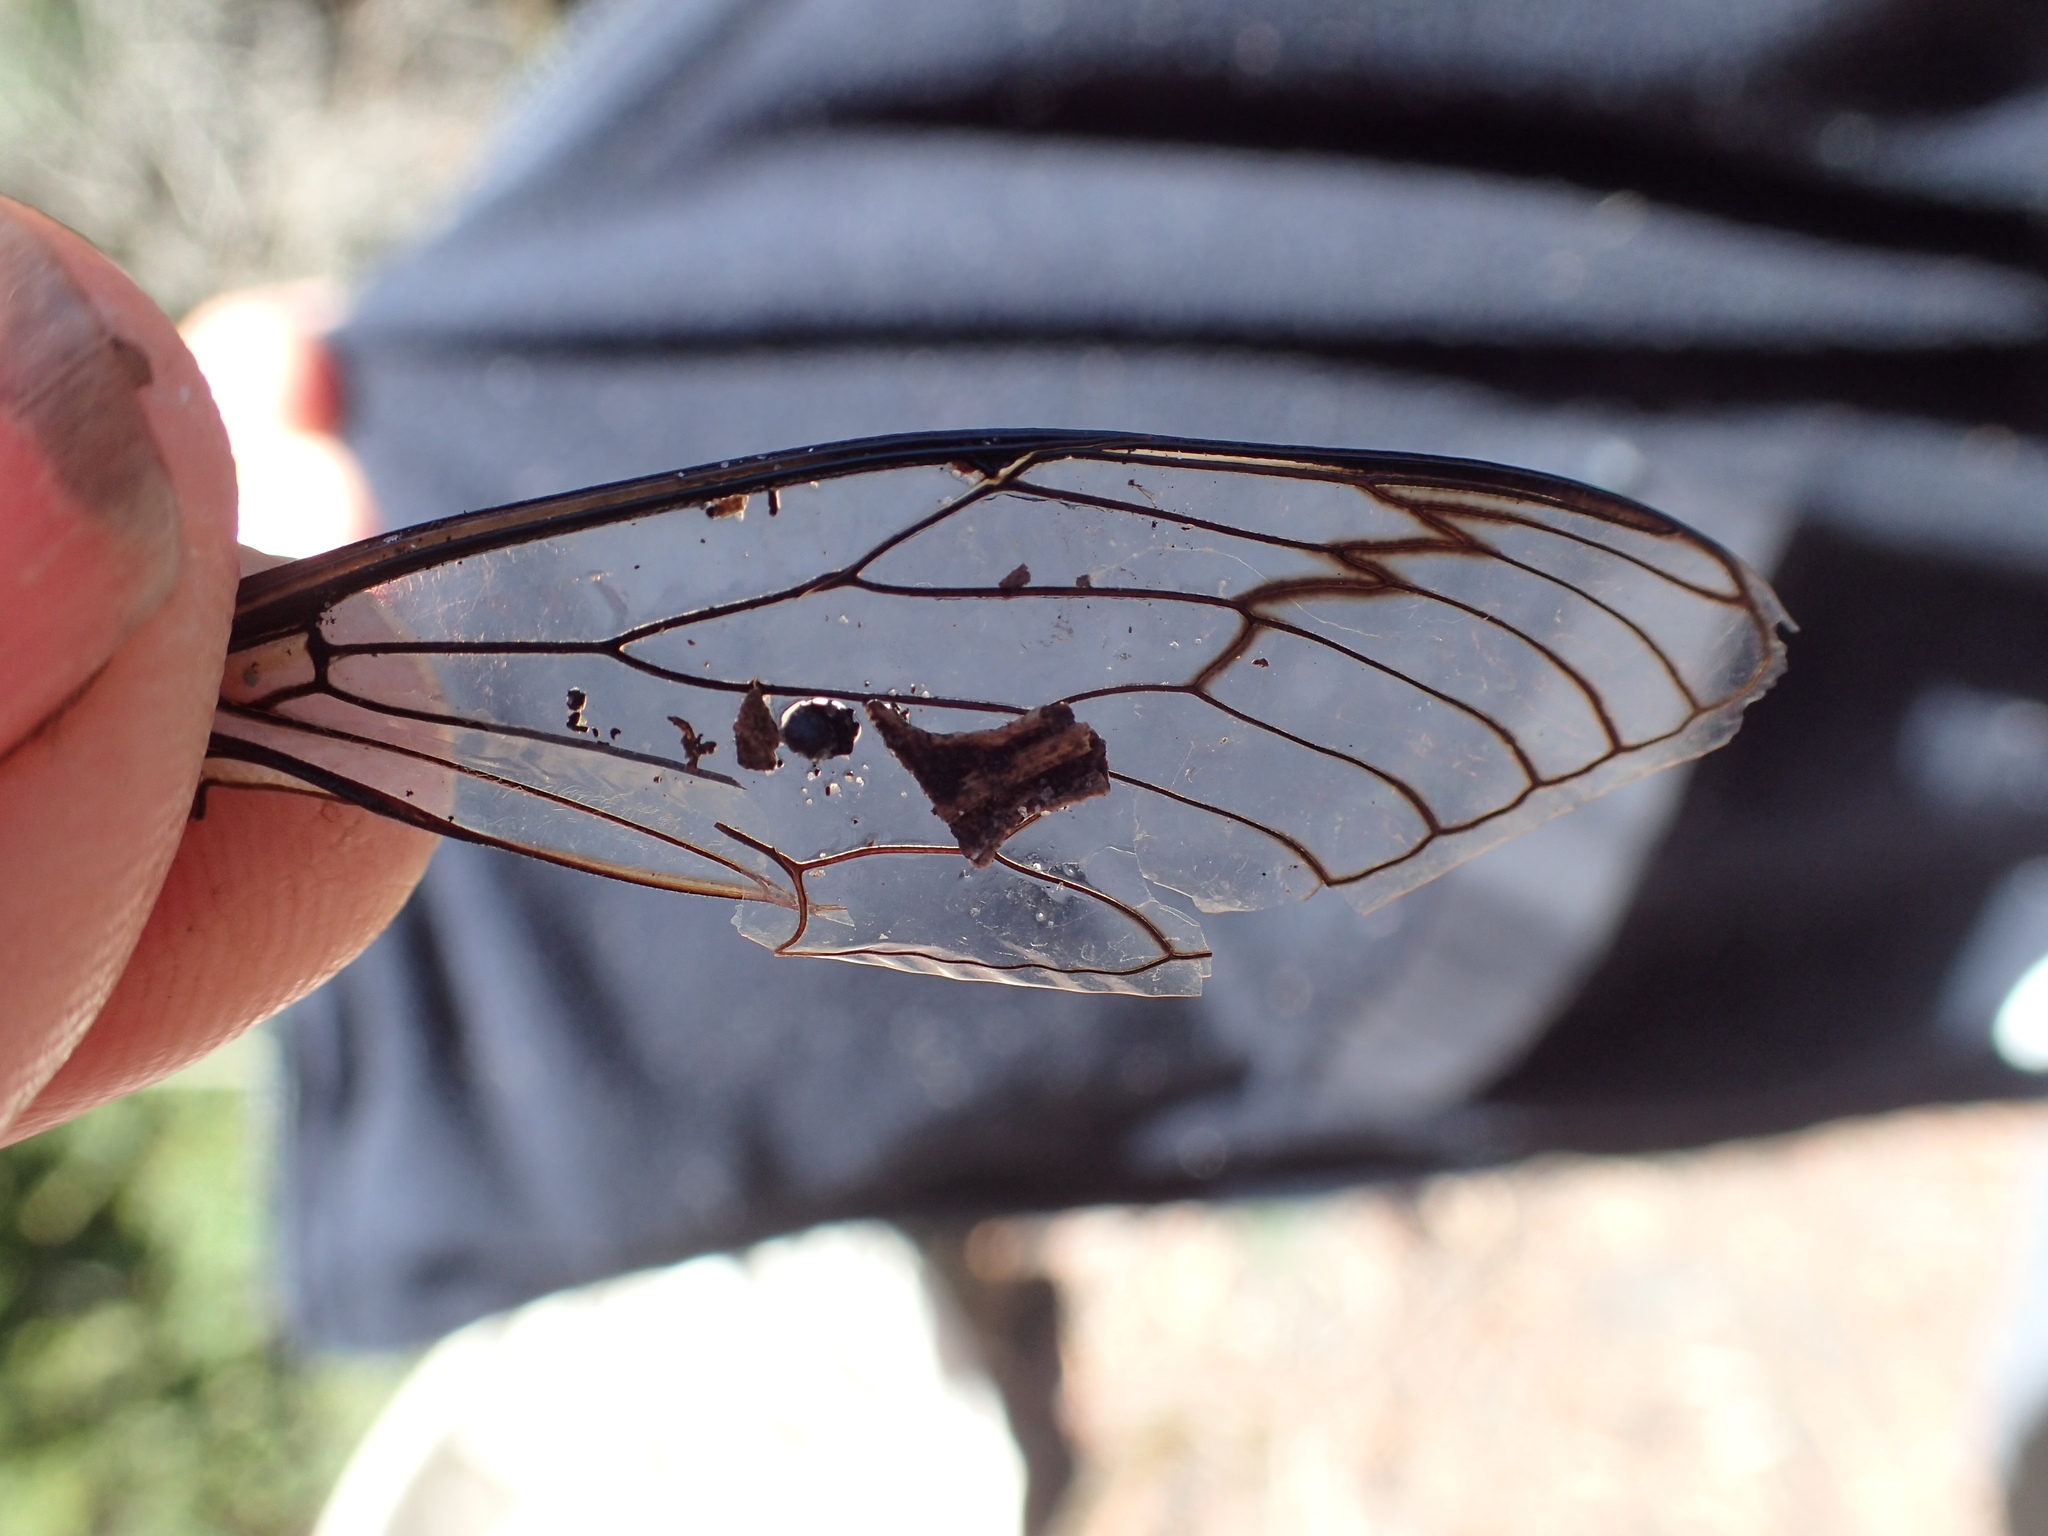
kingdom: Animalia
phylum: Arthropoda
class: Insecta
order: Hemiptera
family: Cicadidae
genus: Psaltoda
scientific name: Psaltoda moerens
